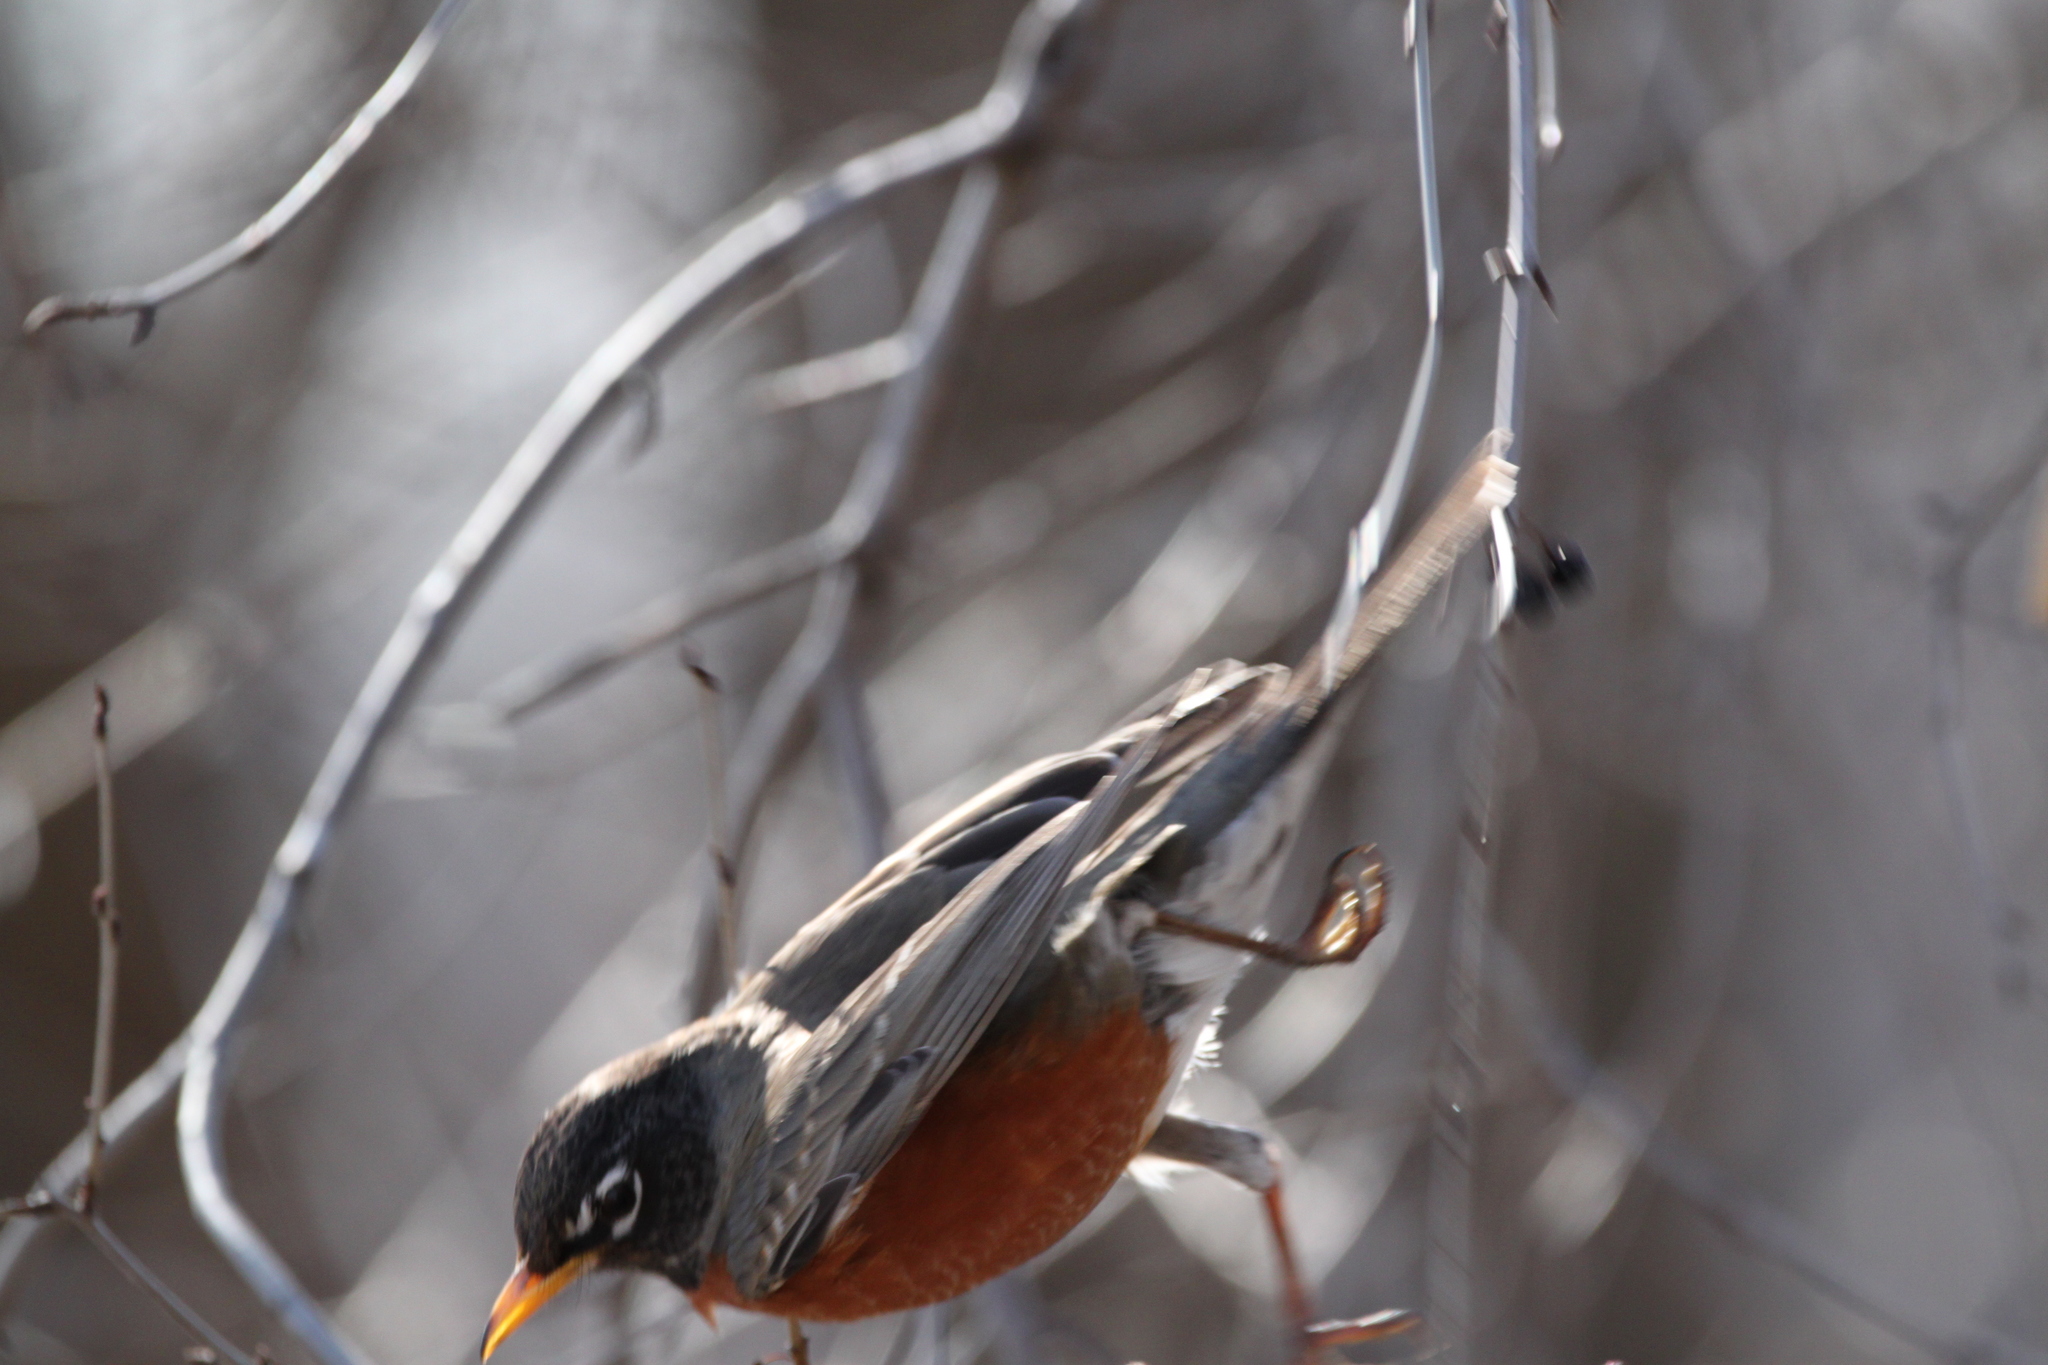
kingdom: Animalia
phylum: Chordata
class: Aves
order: Passeriformes
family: Turdidae
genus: Turdus
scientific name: Turdus migratorius
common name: American robin
